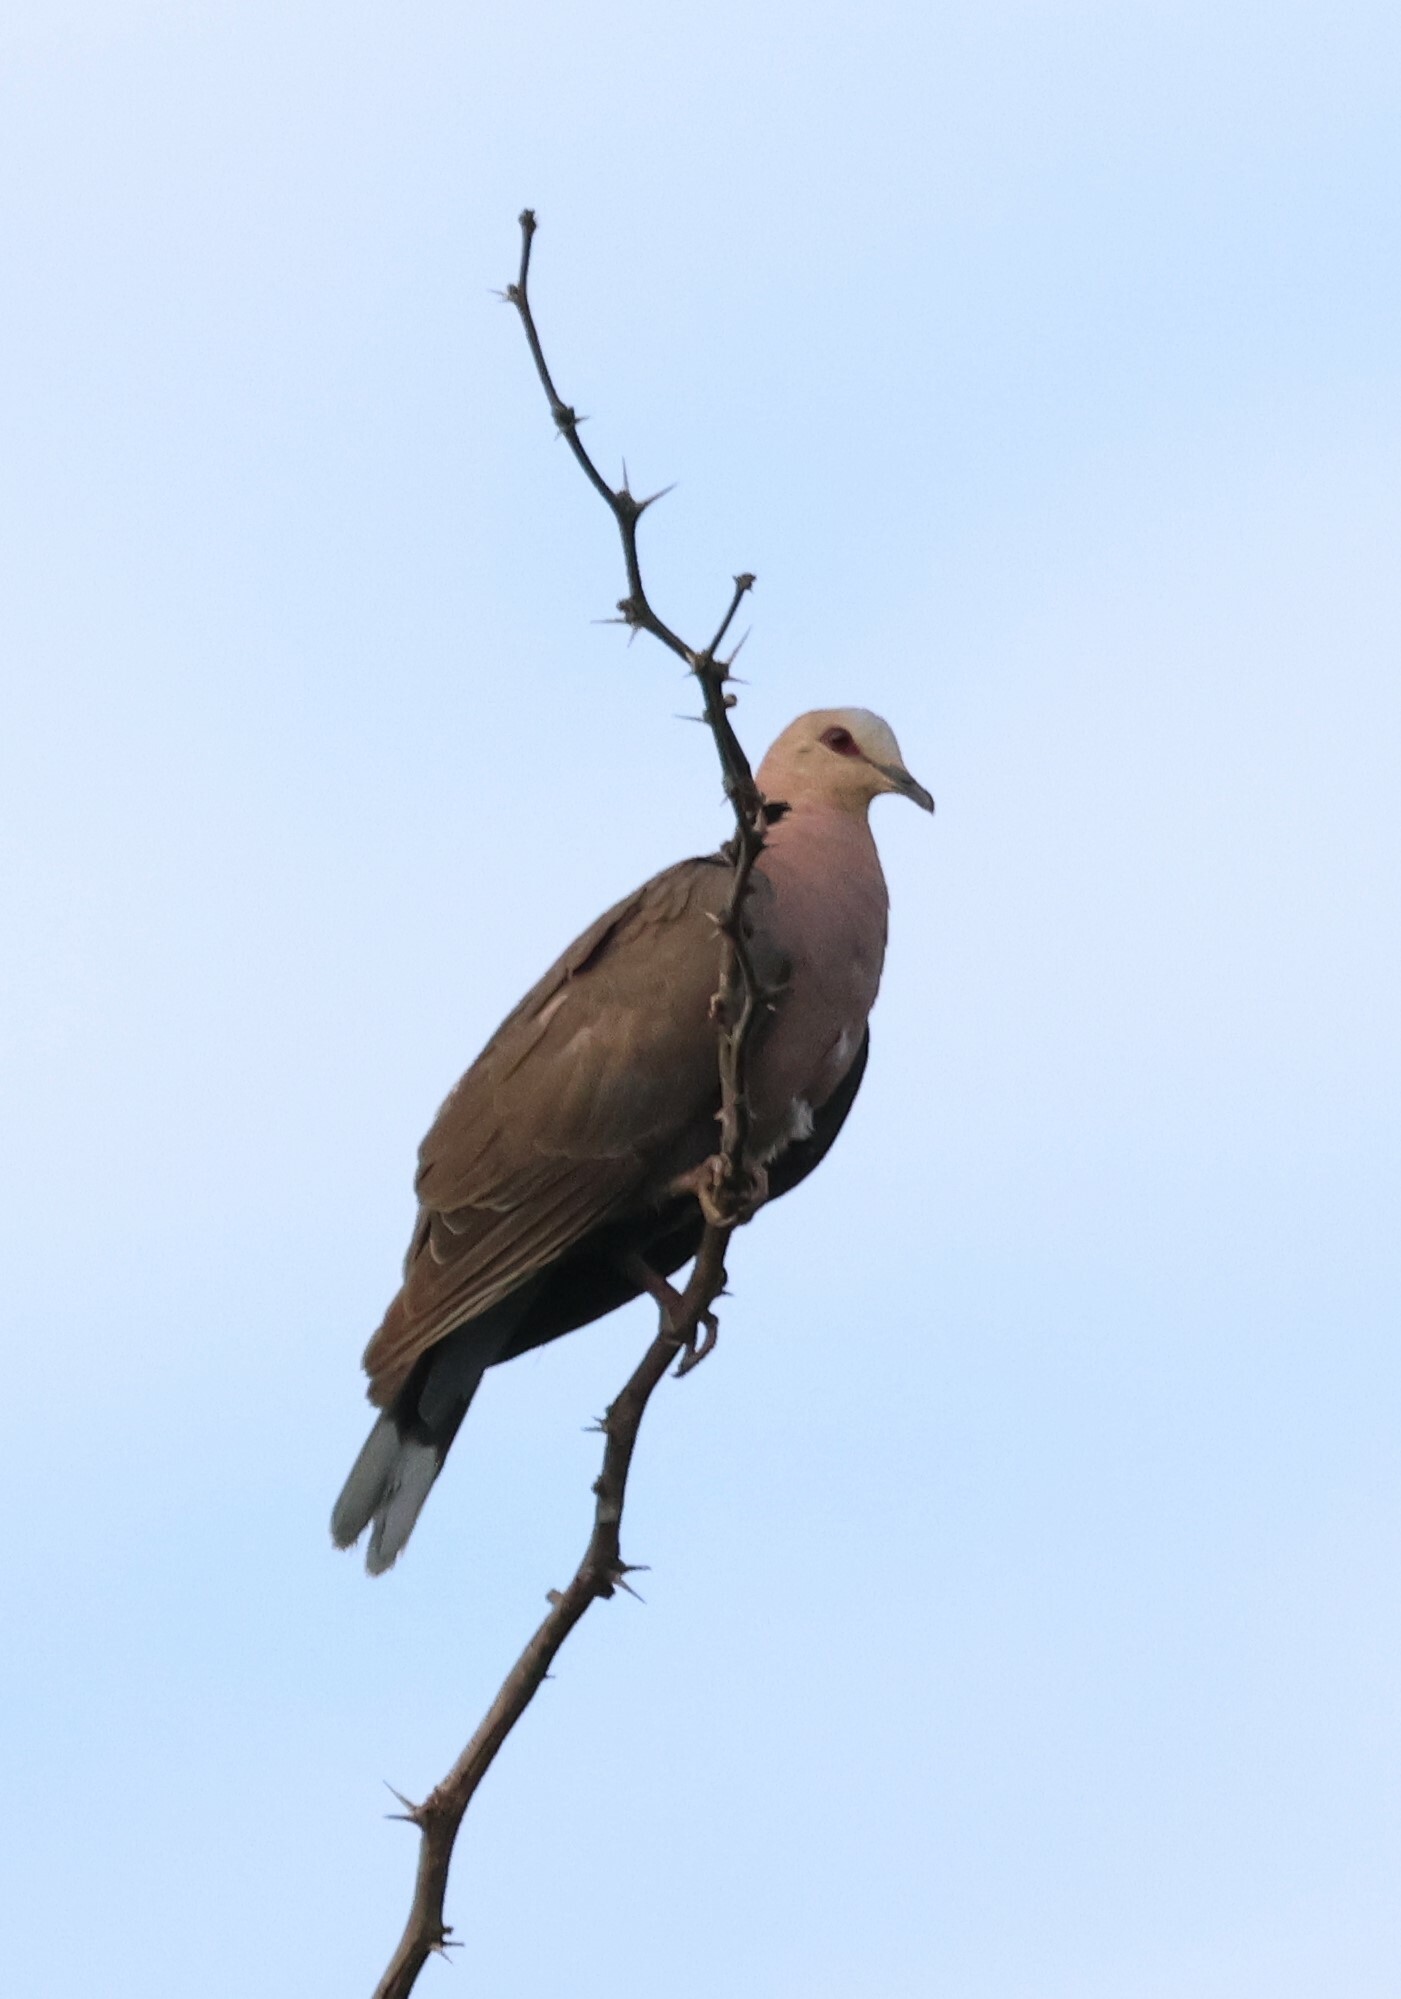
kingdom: Animalia
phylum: Chordata
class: Aves
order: Columbiformes
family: Columbidae
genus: Streptopelia
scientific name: Streptopelia semitorquata
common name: Red-eyed dove
